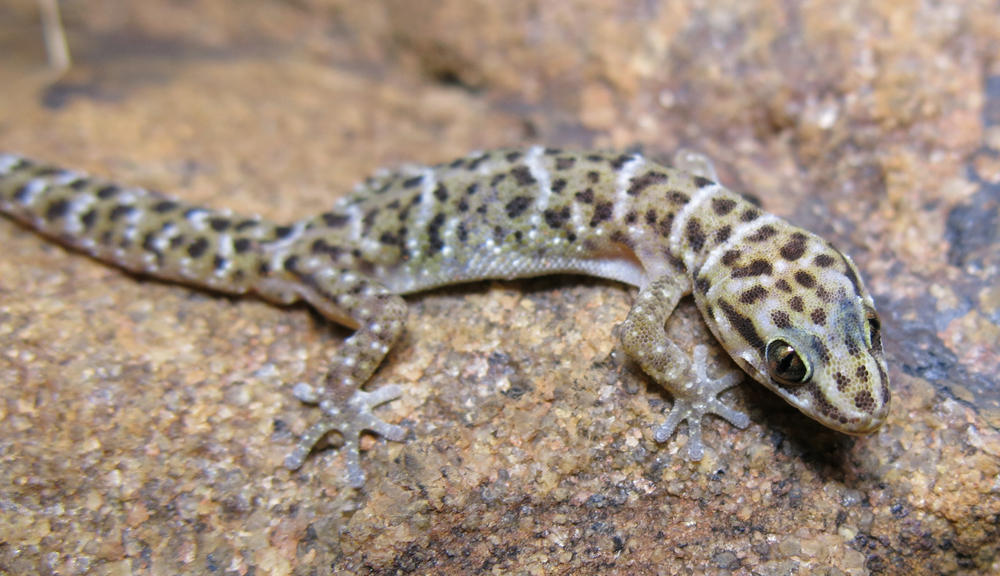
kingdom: Animalia
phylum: Chordata
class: Squamata
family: Gekkonidae
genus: Pachydactylus
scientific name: Pachydactylus affinis
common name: Transvaal gecko
